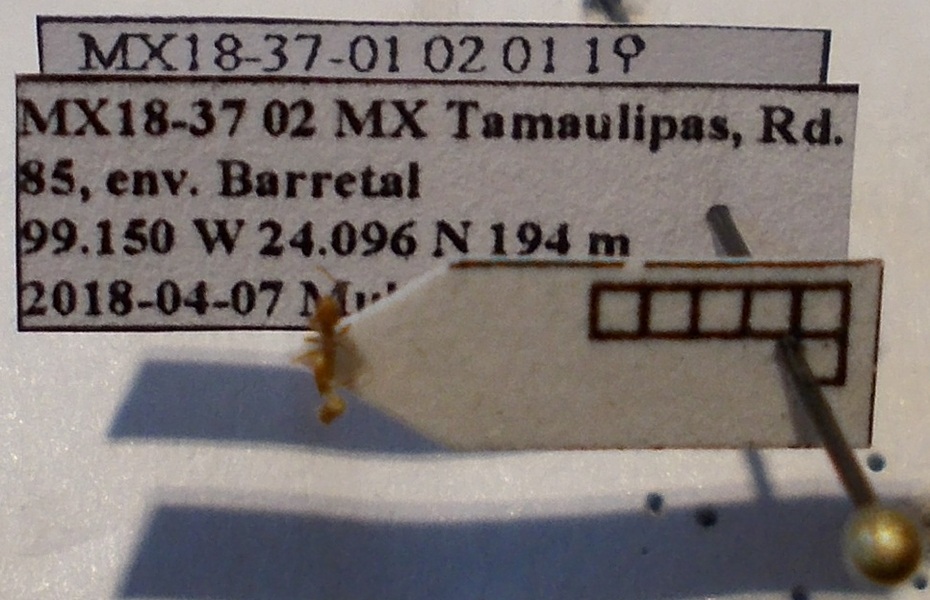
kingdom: Animalia
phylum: Arthropoda
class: Insecta
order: Hymenoptera
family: Formicidae
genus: Forelius
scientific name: Forelius mccooki
